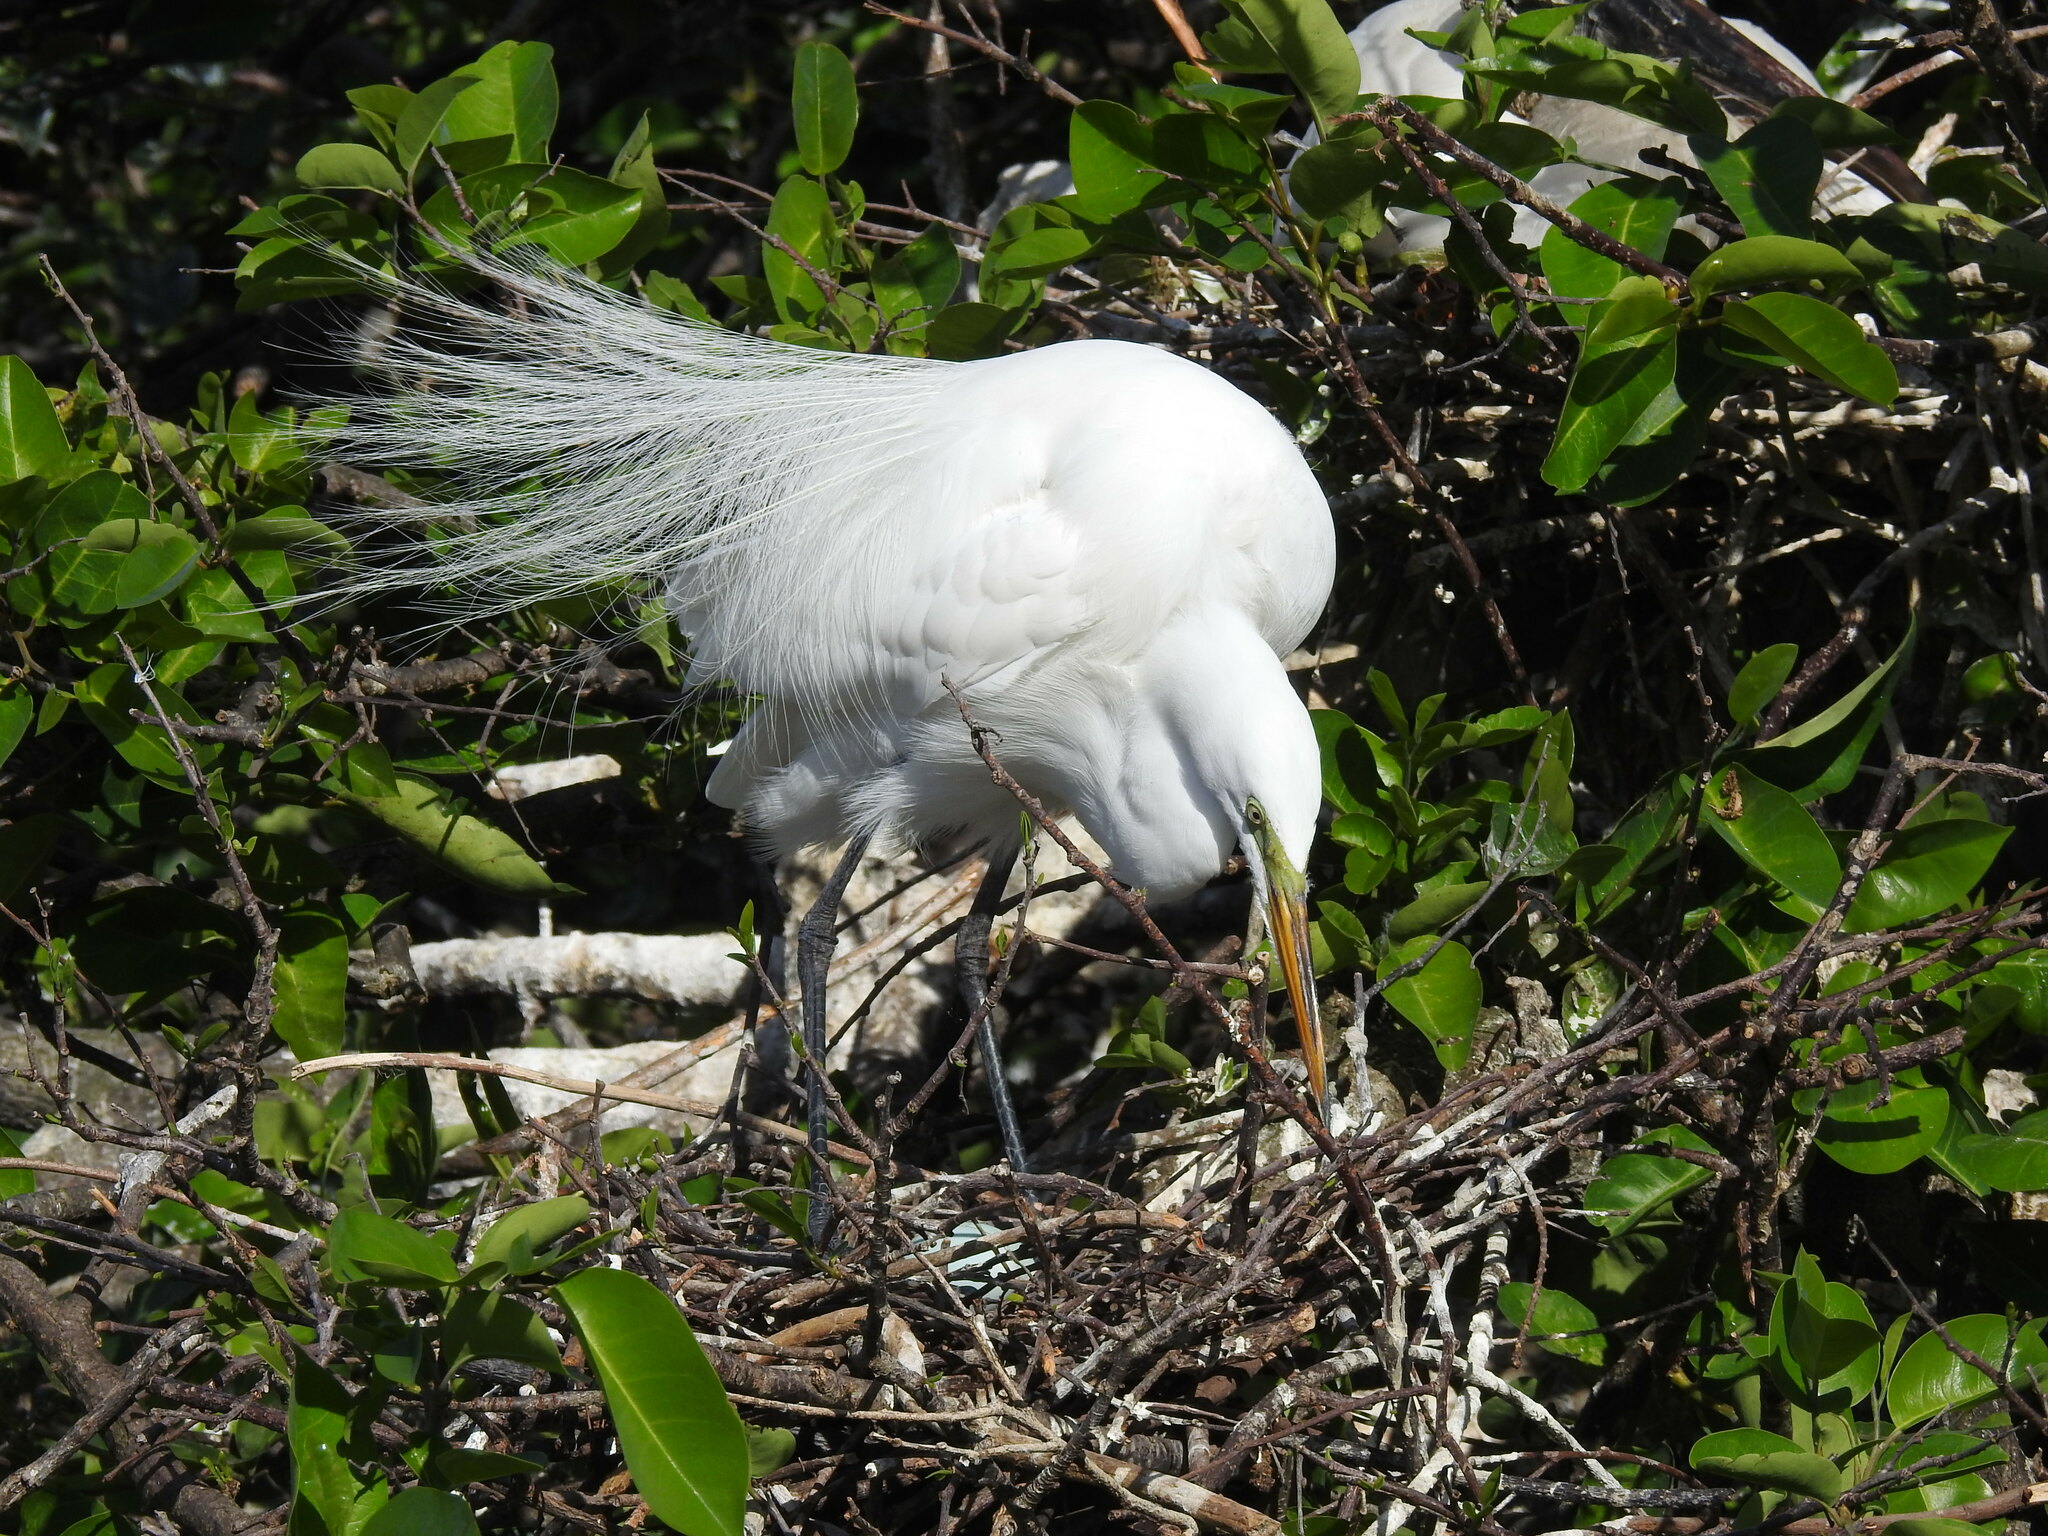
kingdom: Animalia
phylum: Chordata
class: Aves
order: Pelecaniformes
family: Ardeidae
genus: Ardea
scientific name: Ardea alba
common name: Great egret
